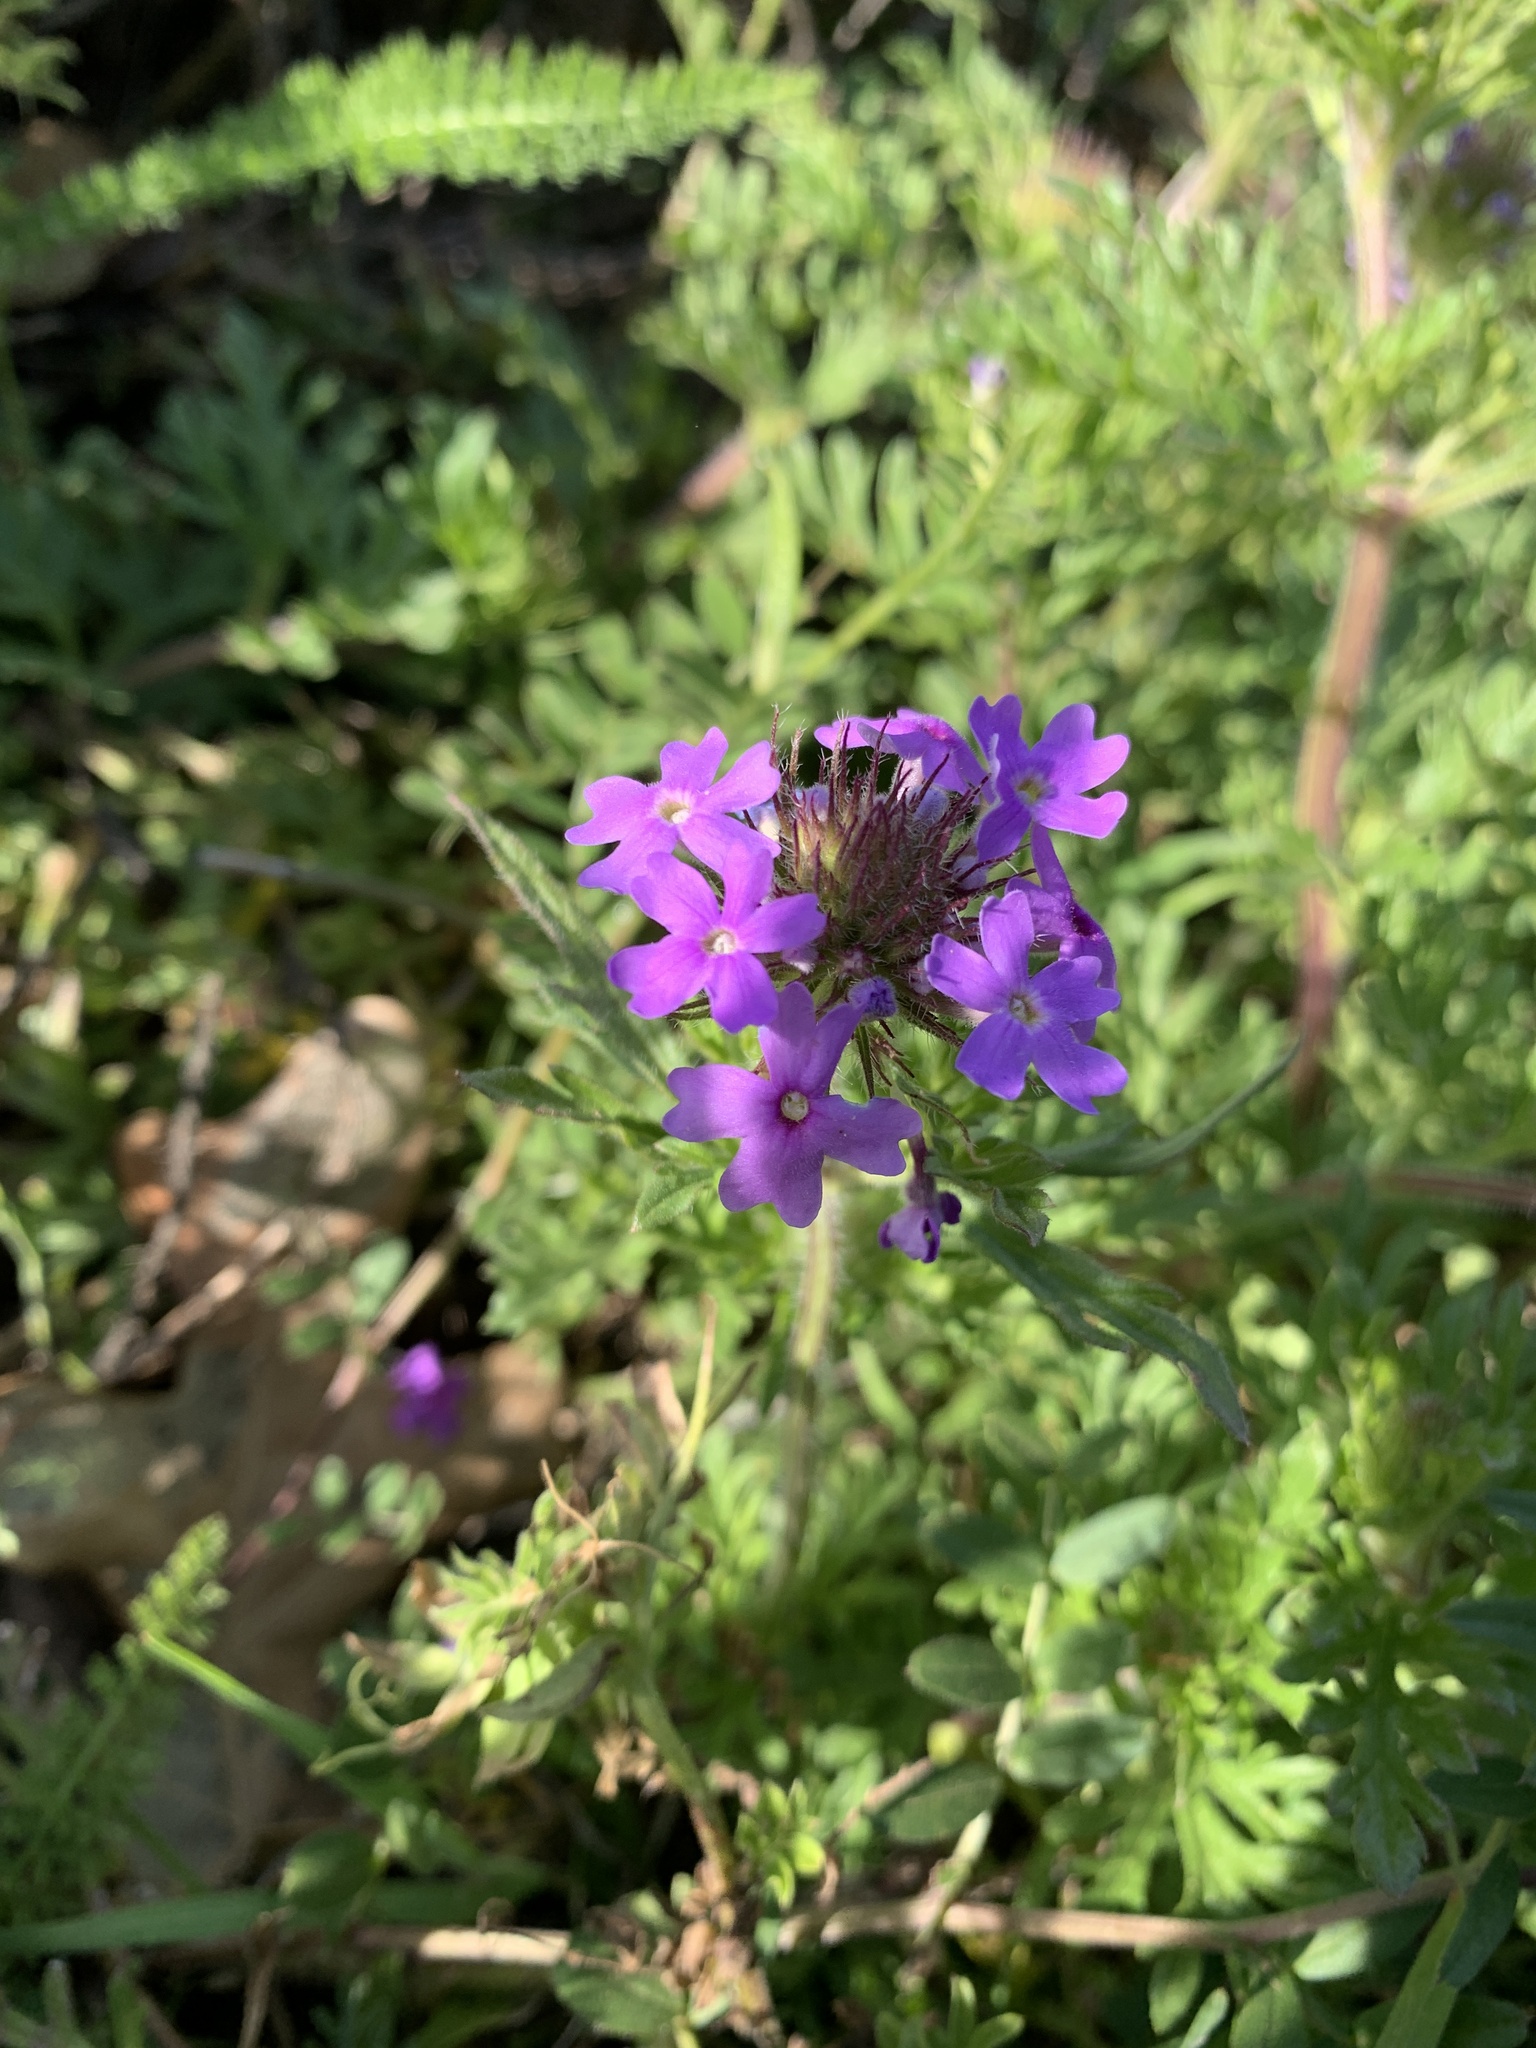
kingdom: Plantae
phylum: Tracheophyta
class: Magnoliopsida
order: Lamiales
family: Verbenaceae
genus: Verbena
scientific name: Verbena bipinnatifida
